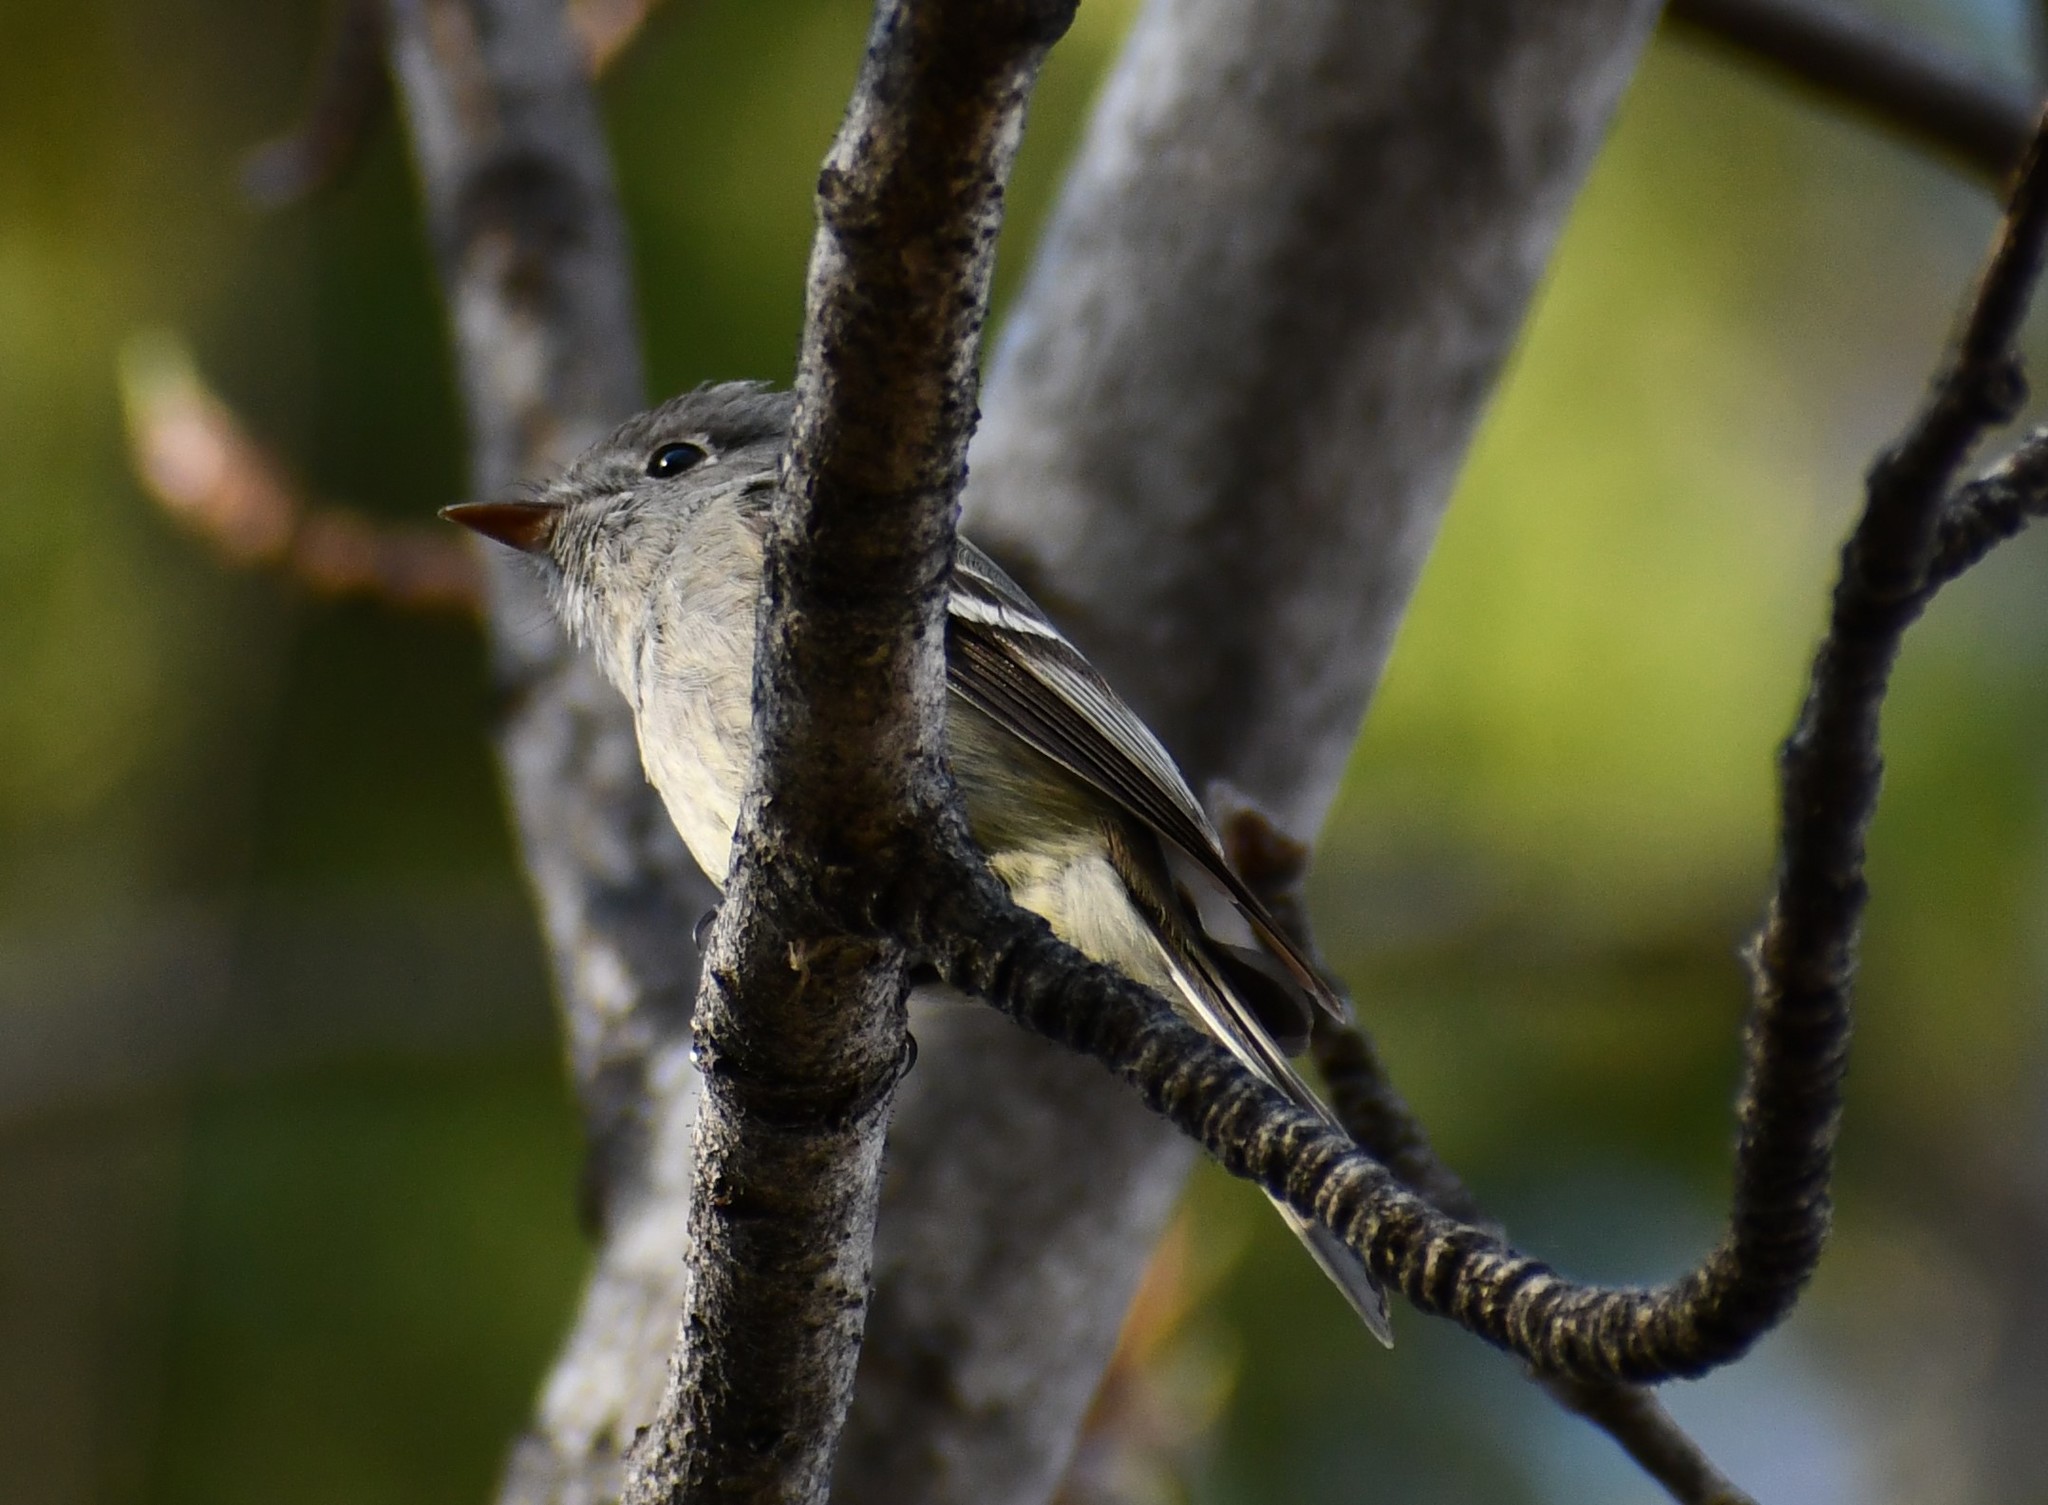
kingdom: Animalia
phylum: Chordata
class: Aves
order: Passeriformes
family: Tyrannidae
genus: Empidonax
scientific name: Empidonax hammondii
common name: Hammond's flycatcher
